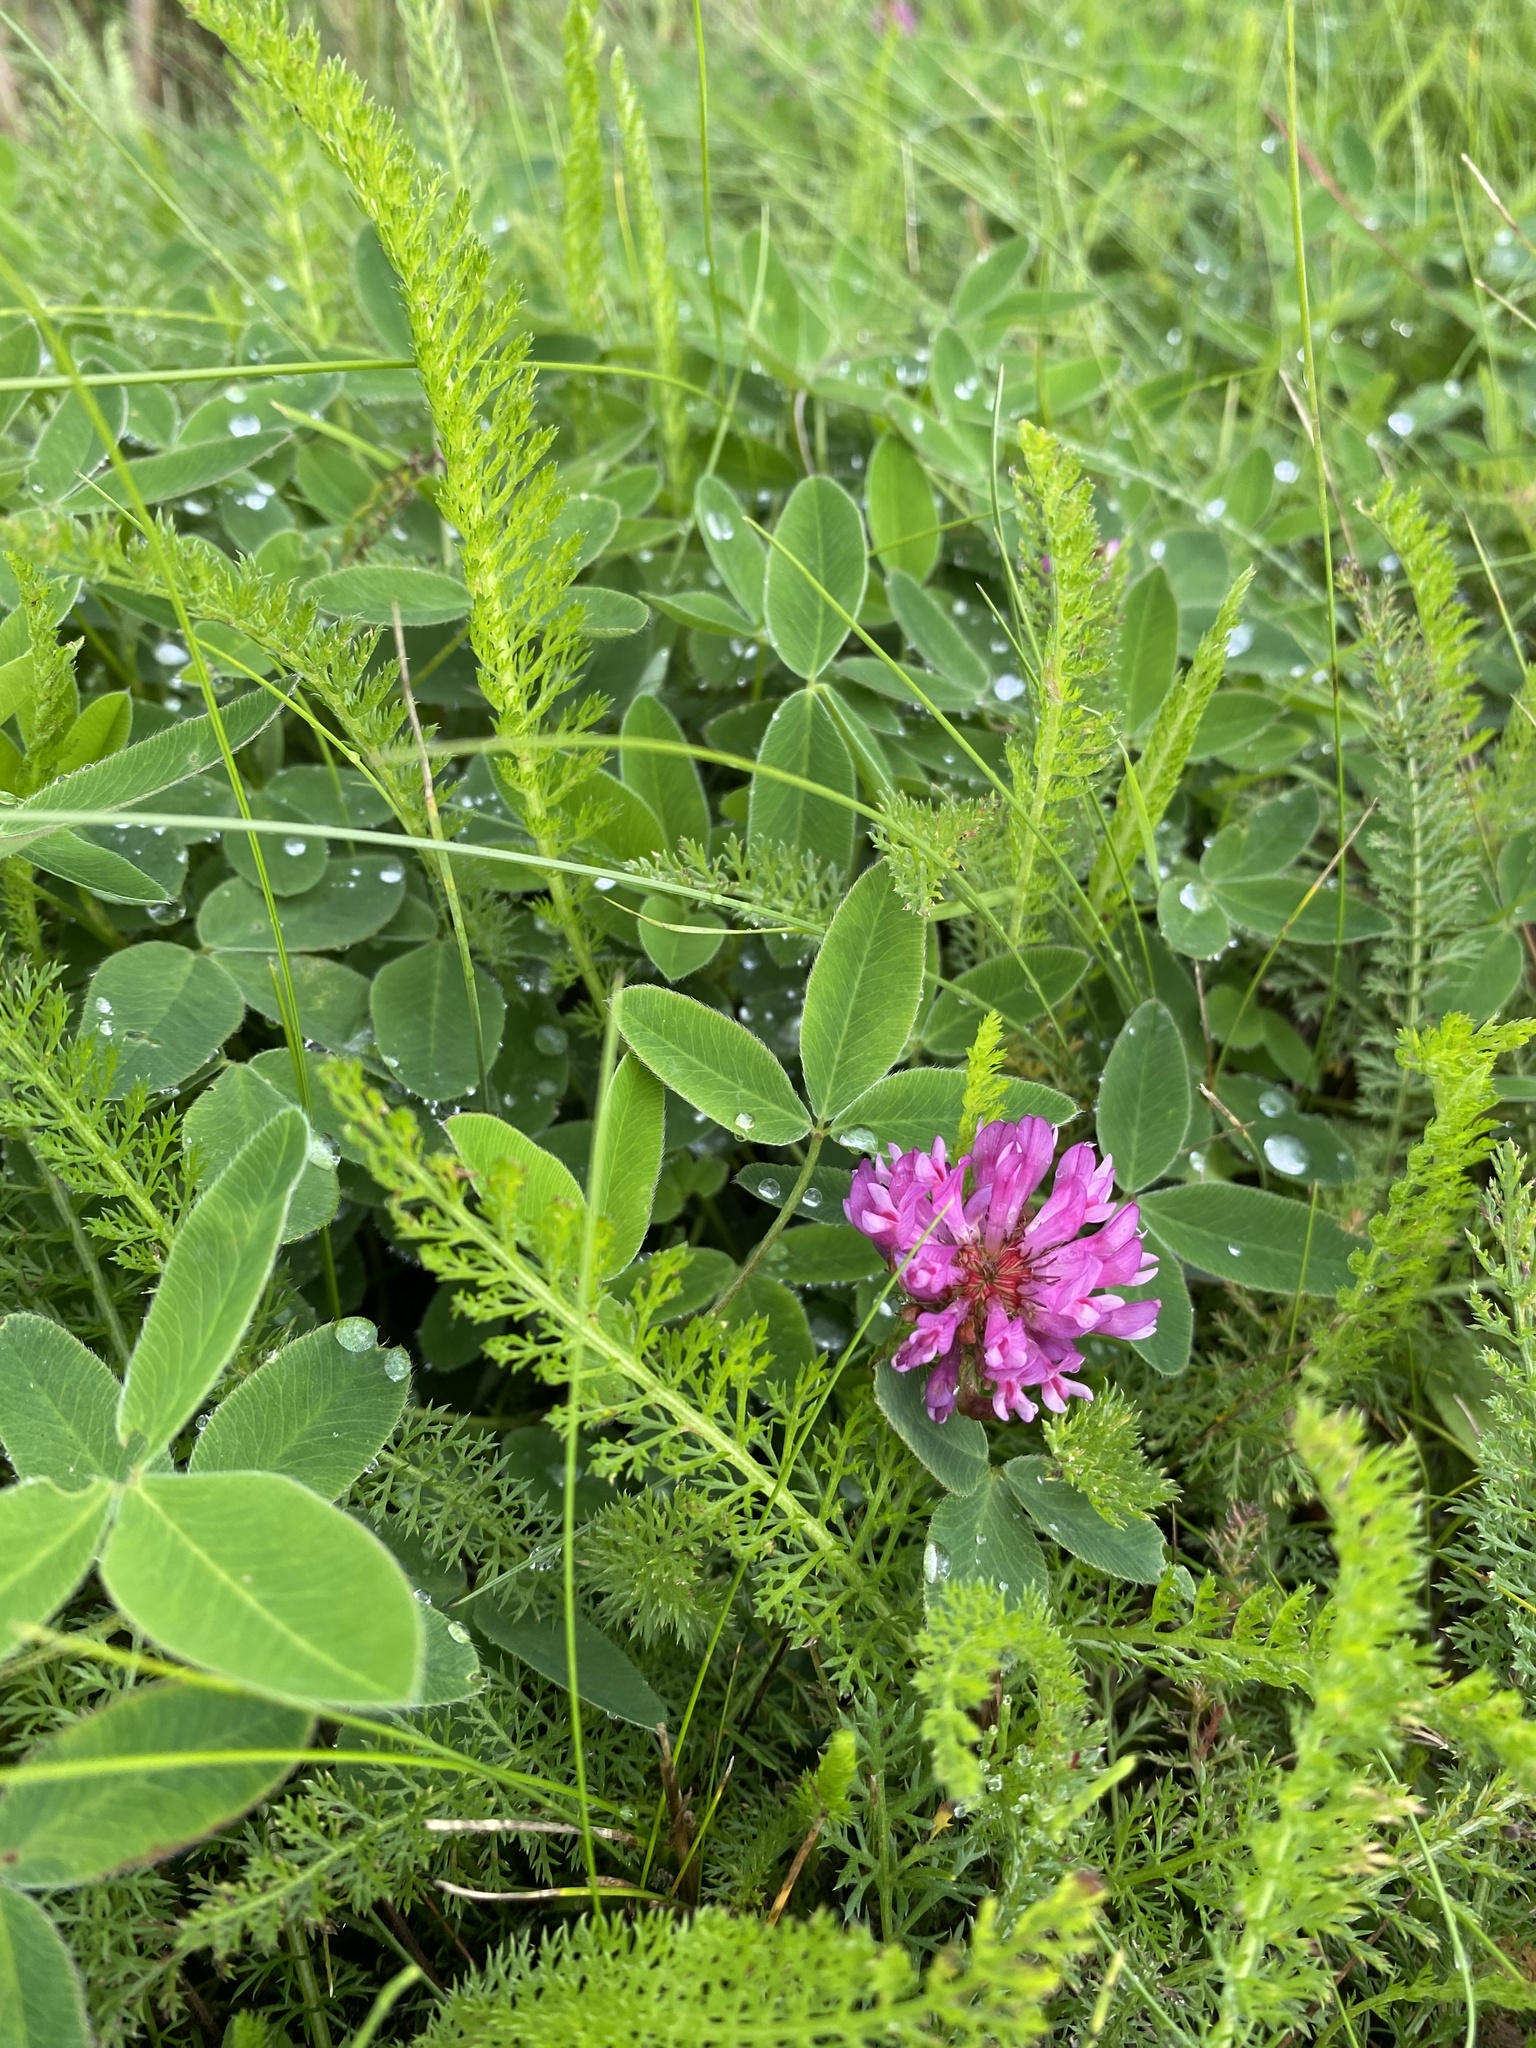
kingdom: Plantae
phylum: Tracheophyta
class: Magnoliopsida
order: Fabales
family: Fabaceae
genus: Trifolium
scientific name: Trifolium medium
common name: Zigzag clover
